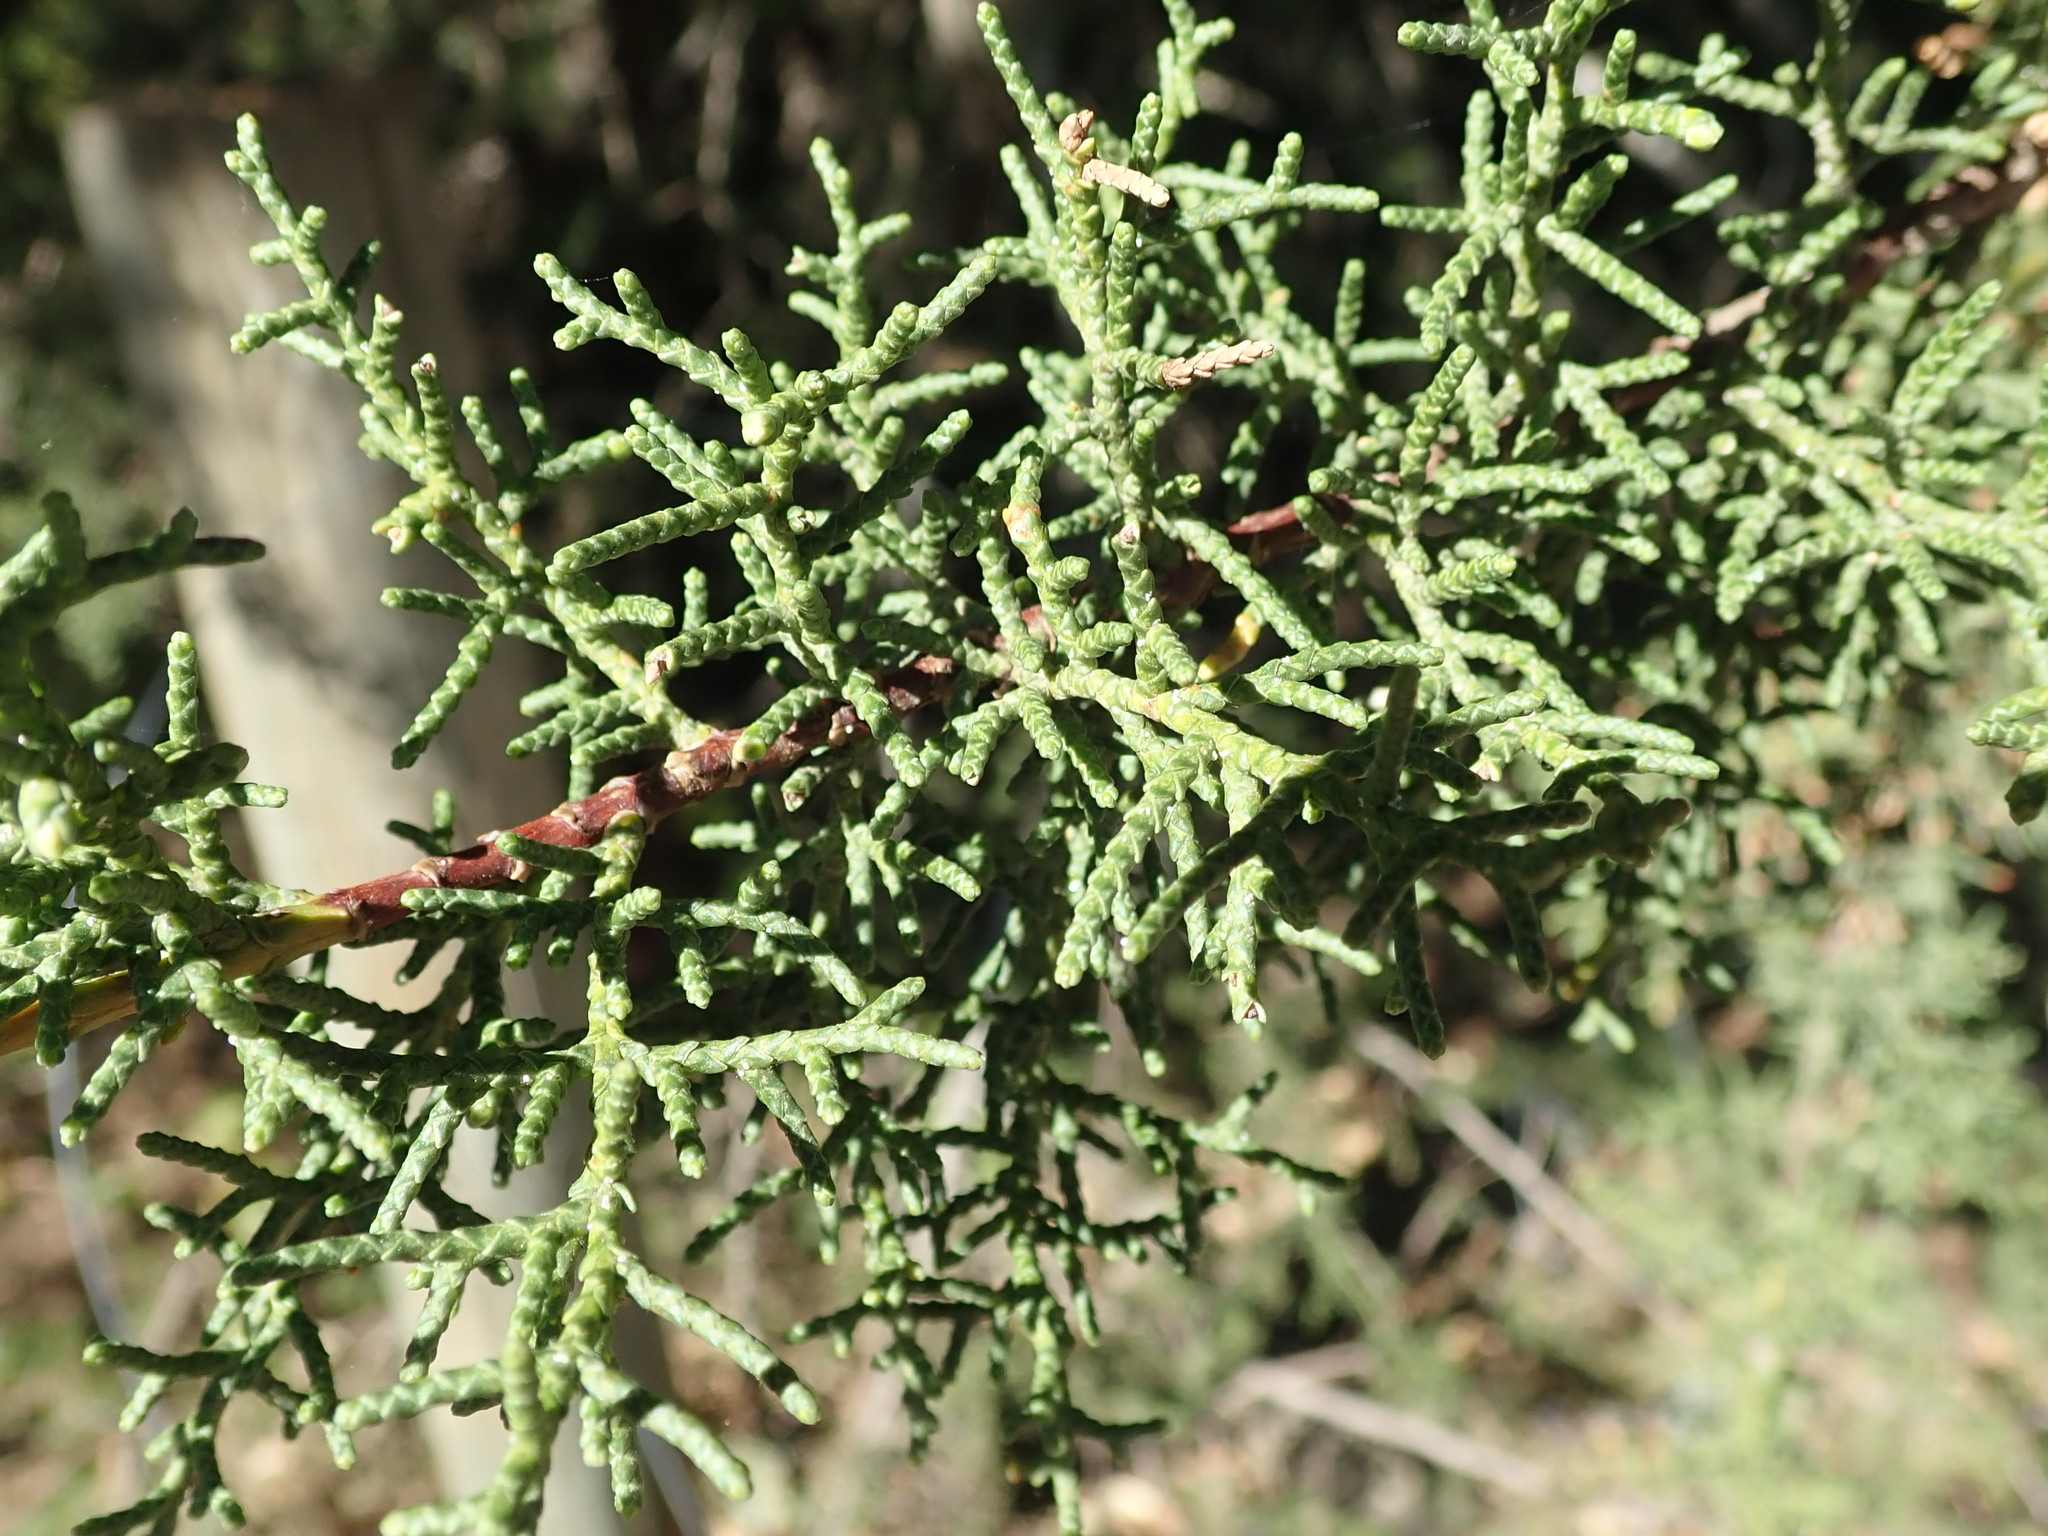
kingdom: Plantae
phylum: Tracheophyta
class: Pinopsida
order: Pinales
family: Cupressaceae
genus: Cupressus
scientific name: Cupressus goveniana
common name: Gowen cypress
